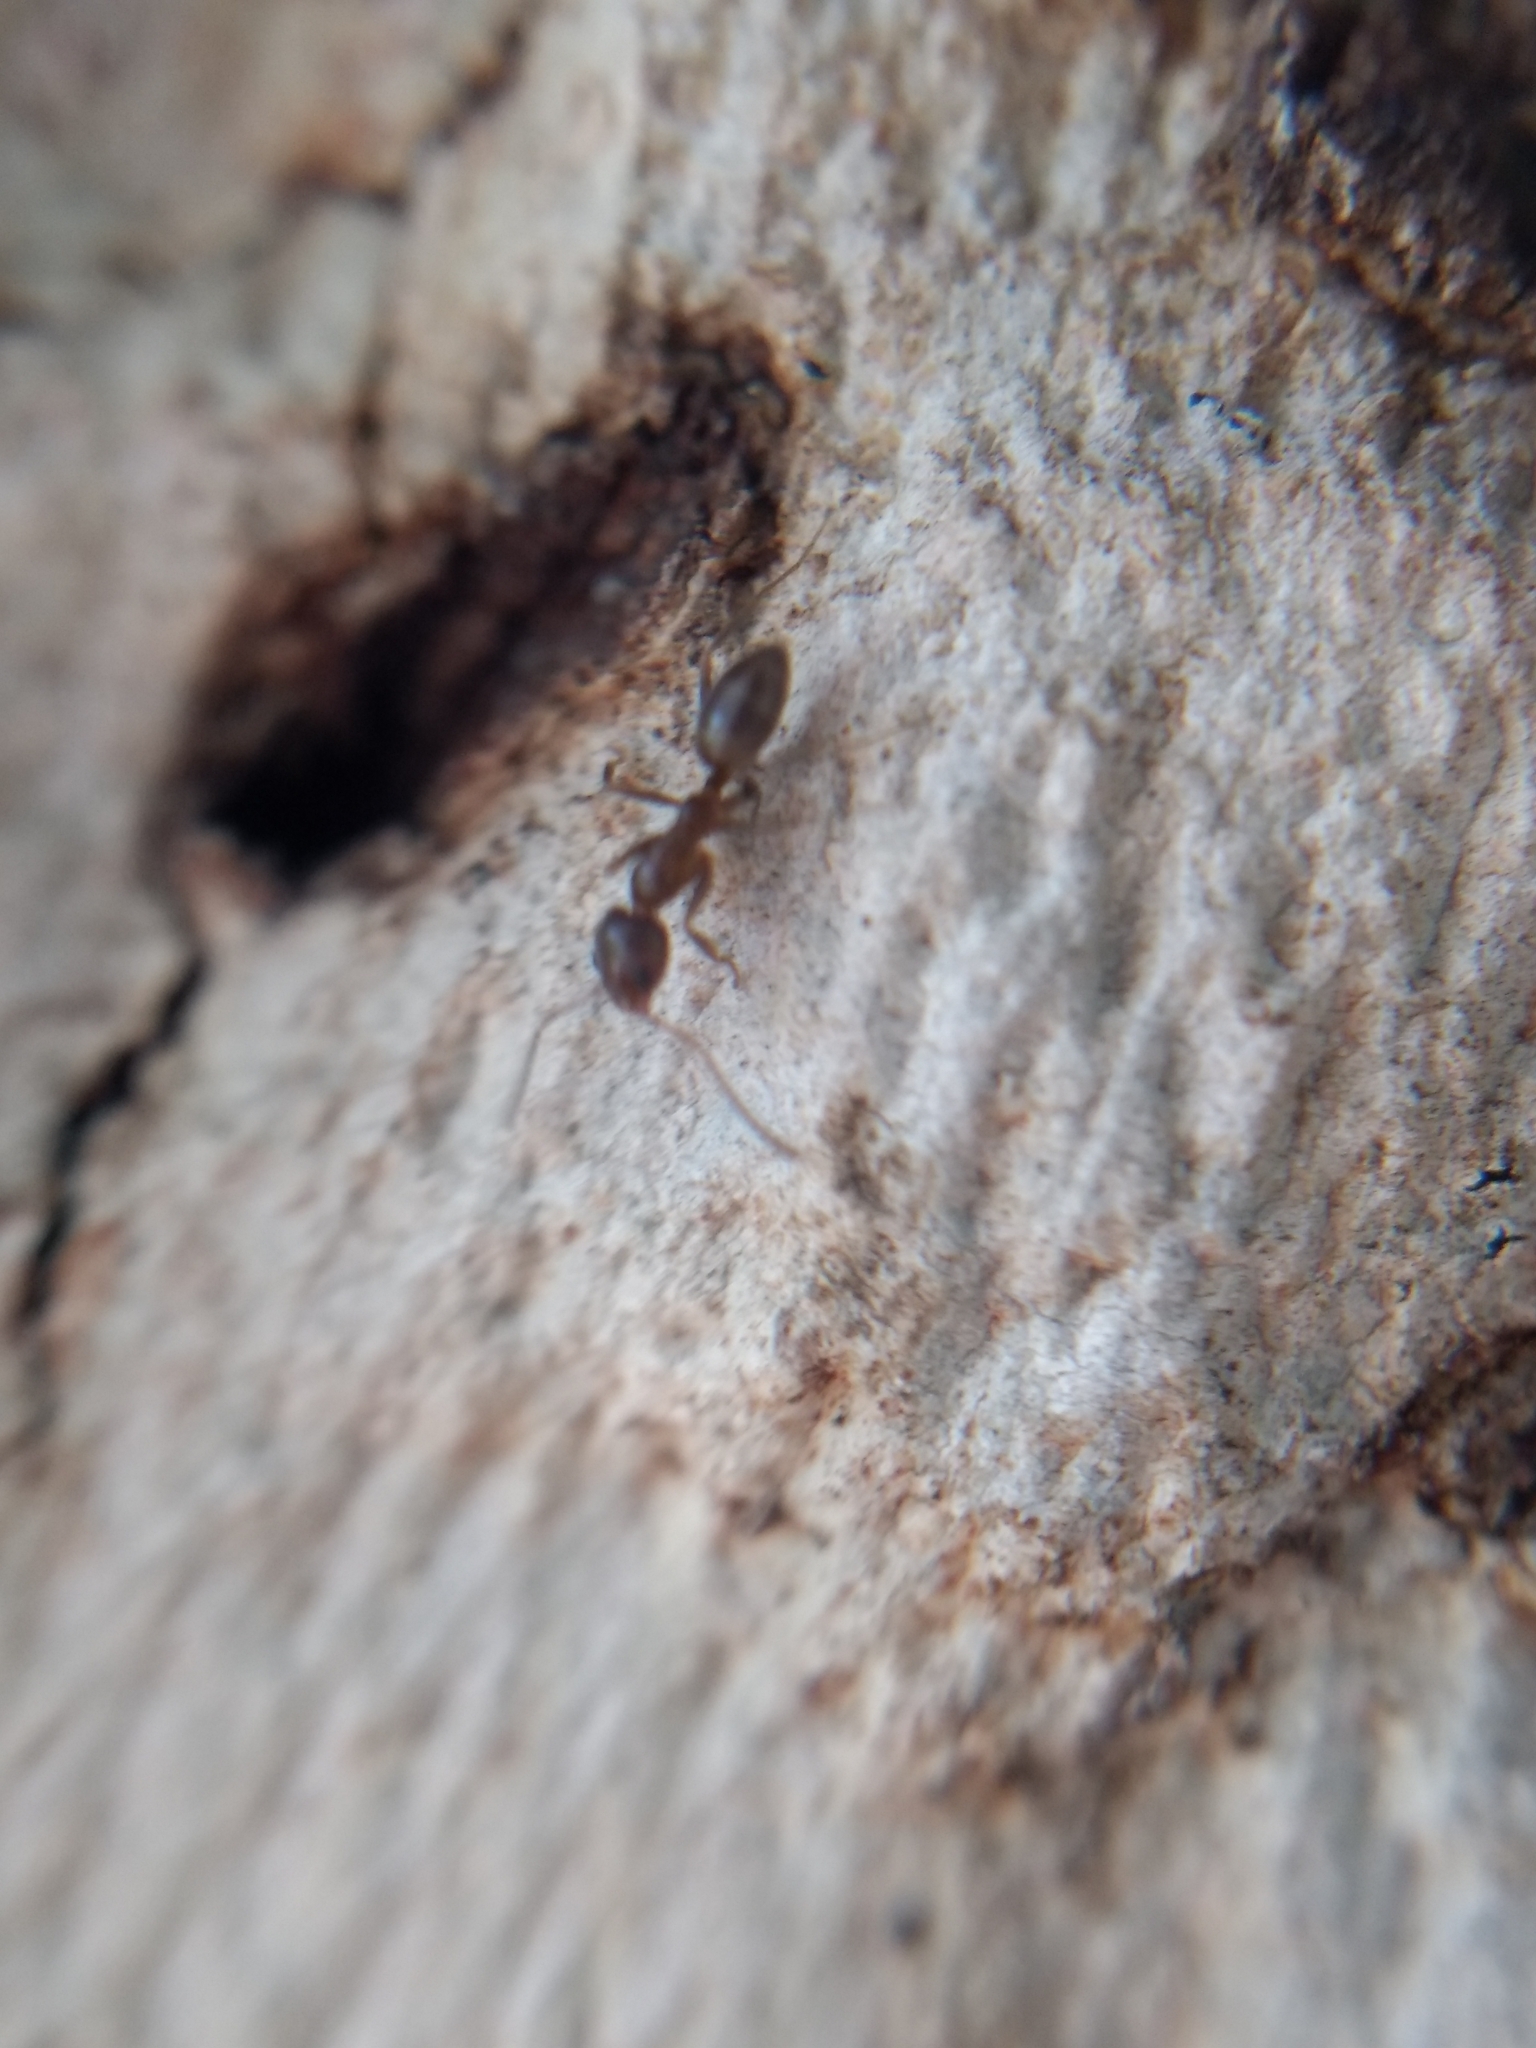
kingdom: Animalia
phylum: Arthropoda
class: Insecta
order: Hymenoptera
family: Formicidae
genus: Linepithema
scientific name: Linepithema humile
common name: Argentine ant
